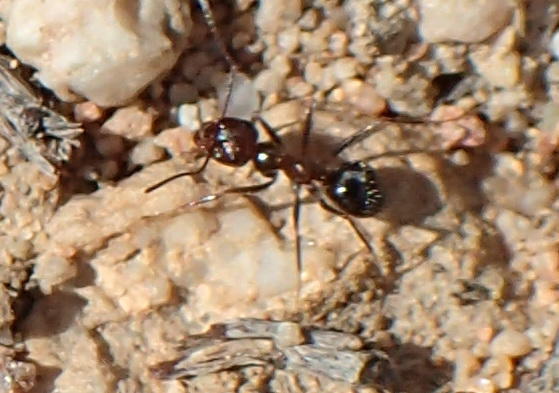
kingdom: Animalia
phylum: Arthropoda
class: Insecta
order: Hymenoptera
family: Formicidae
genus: Anoplolepis
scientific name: Anoplolepis steingroeveri
